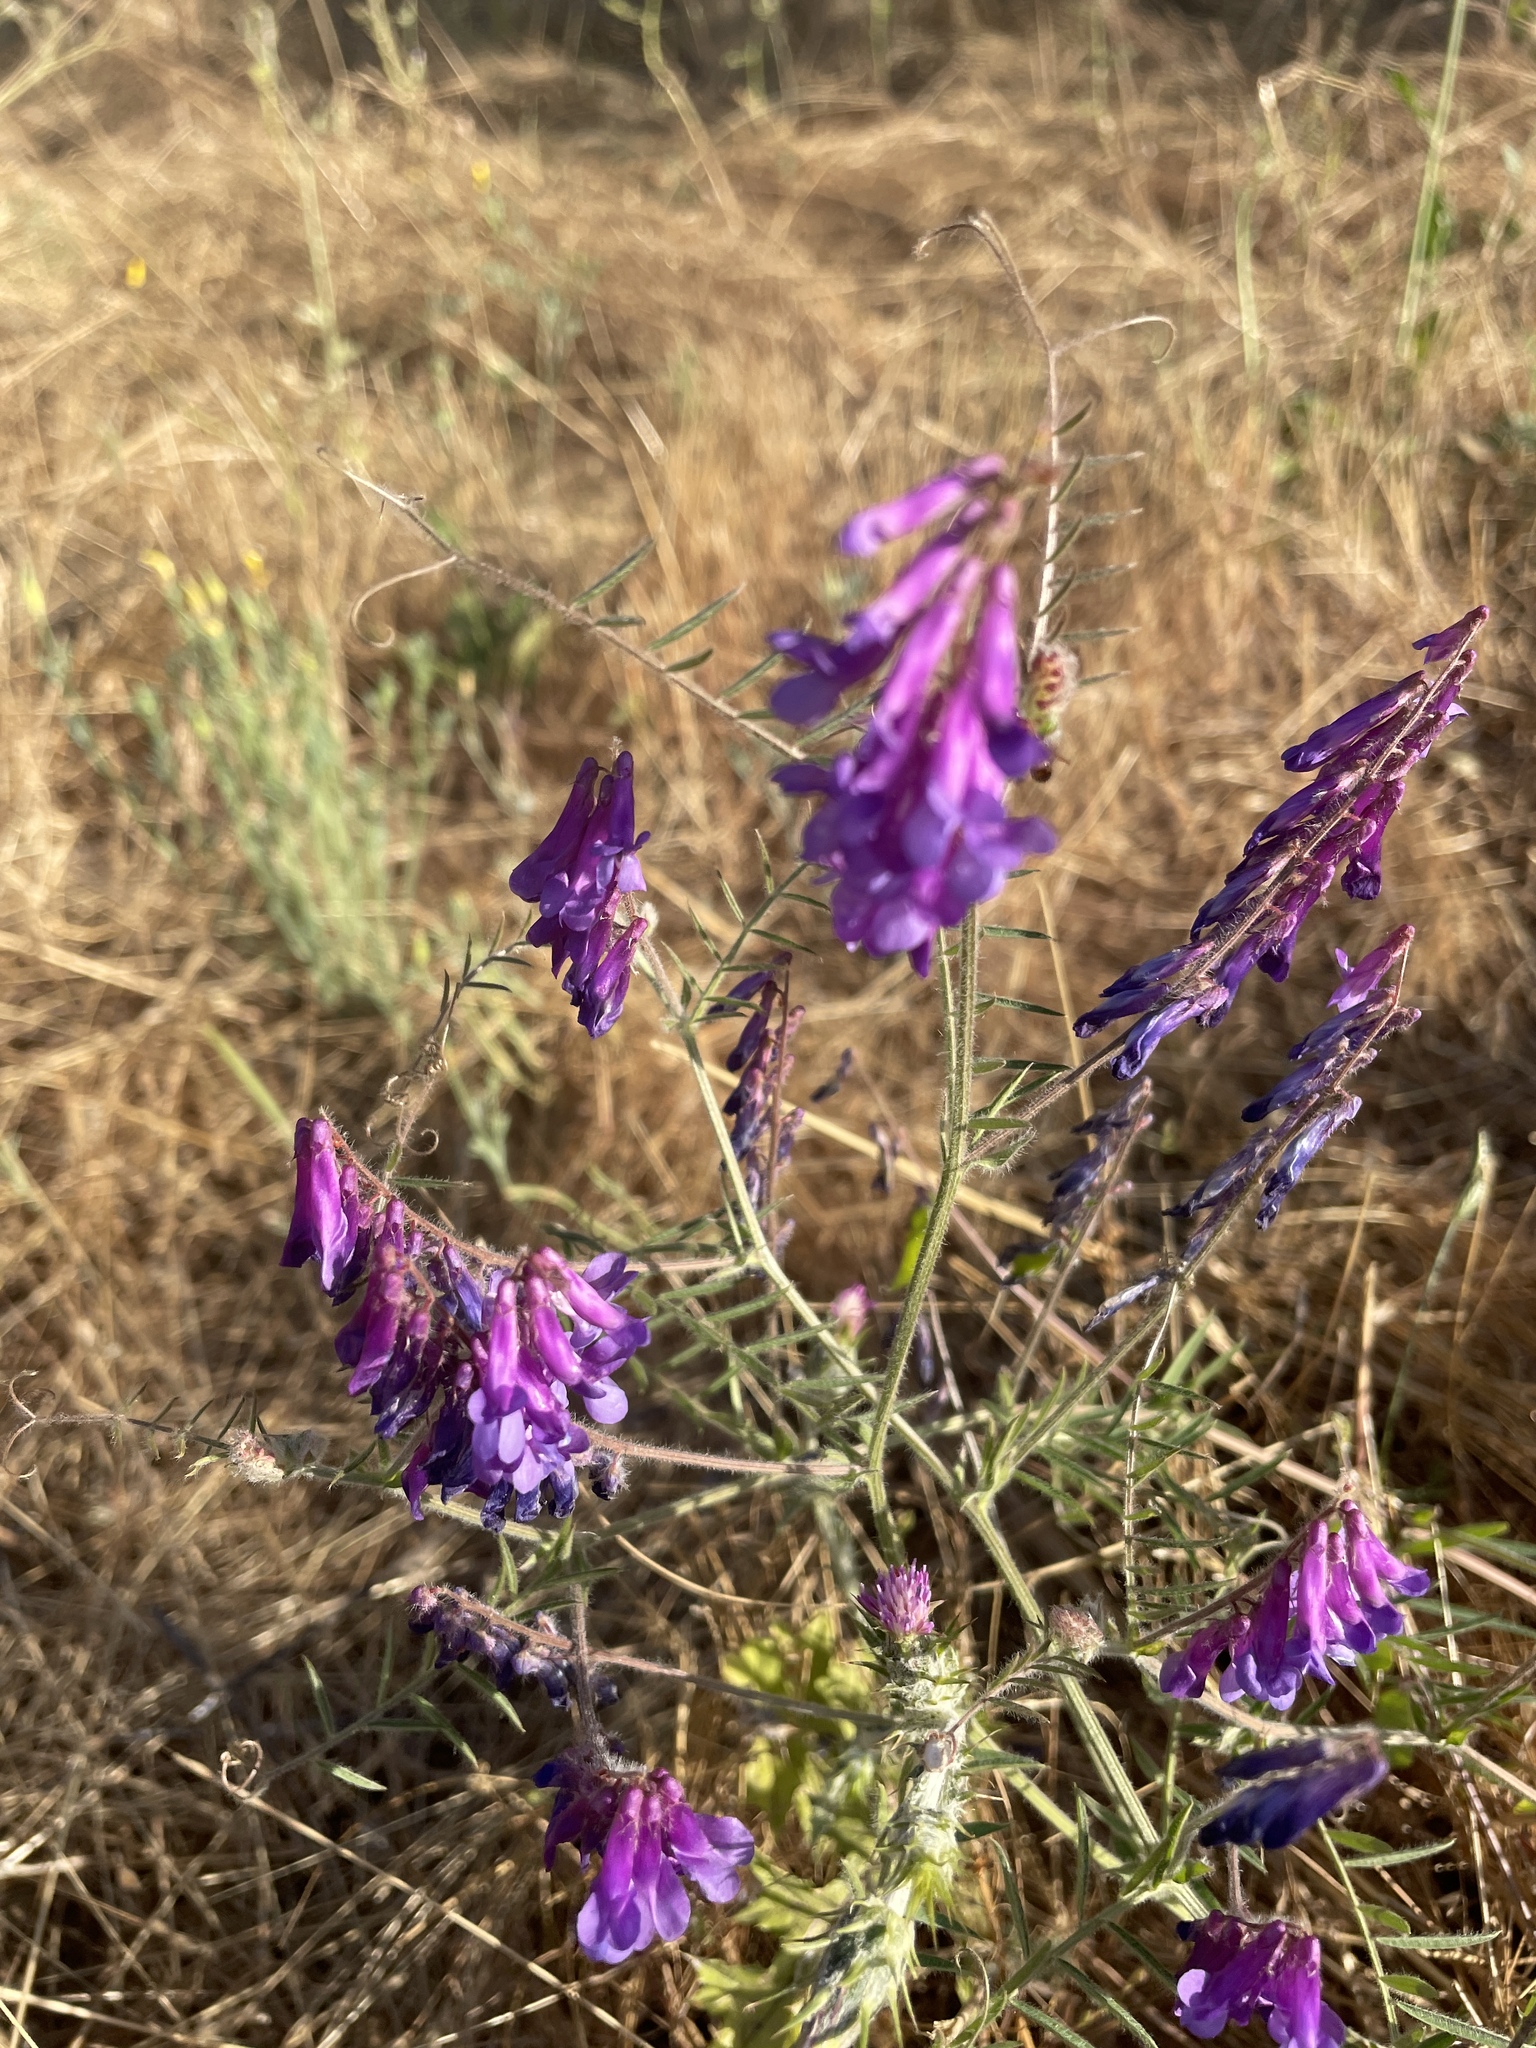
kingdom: Plantae
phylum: Tracheophyta
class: Magnoliopsida
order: Fabales
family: Fabaceae
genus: Vicia
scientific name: Vicia villosa
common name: Fodder vetch
